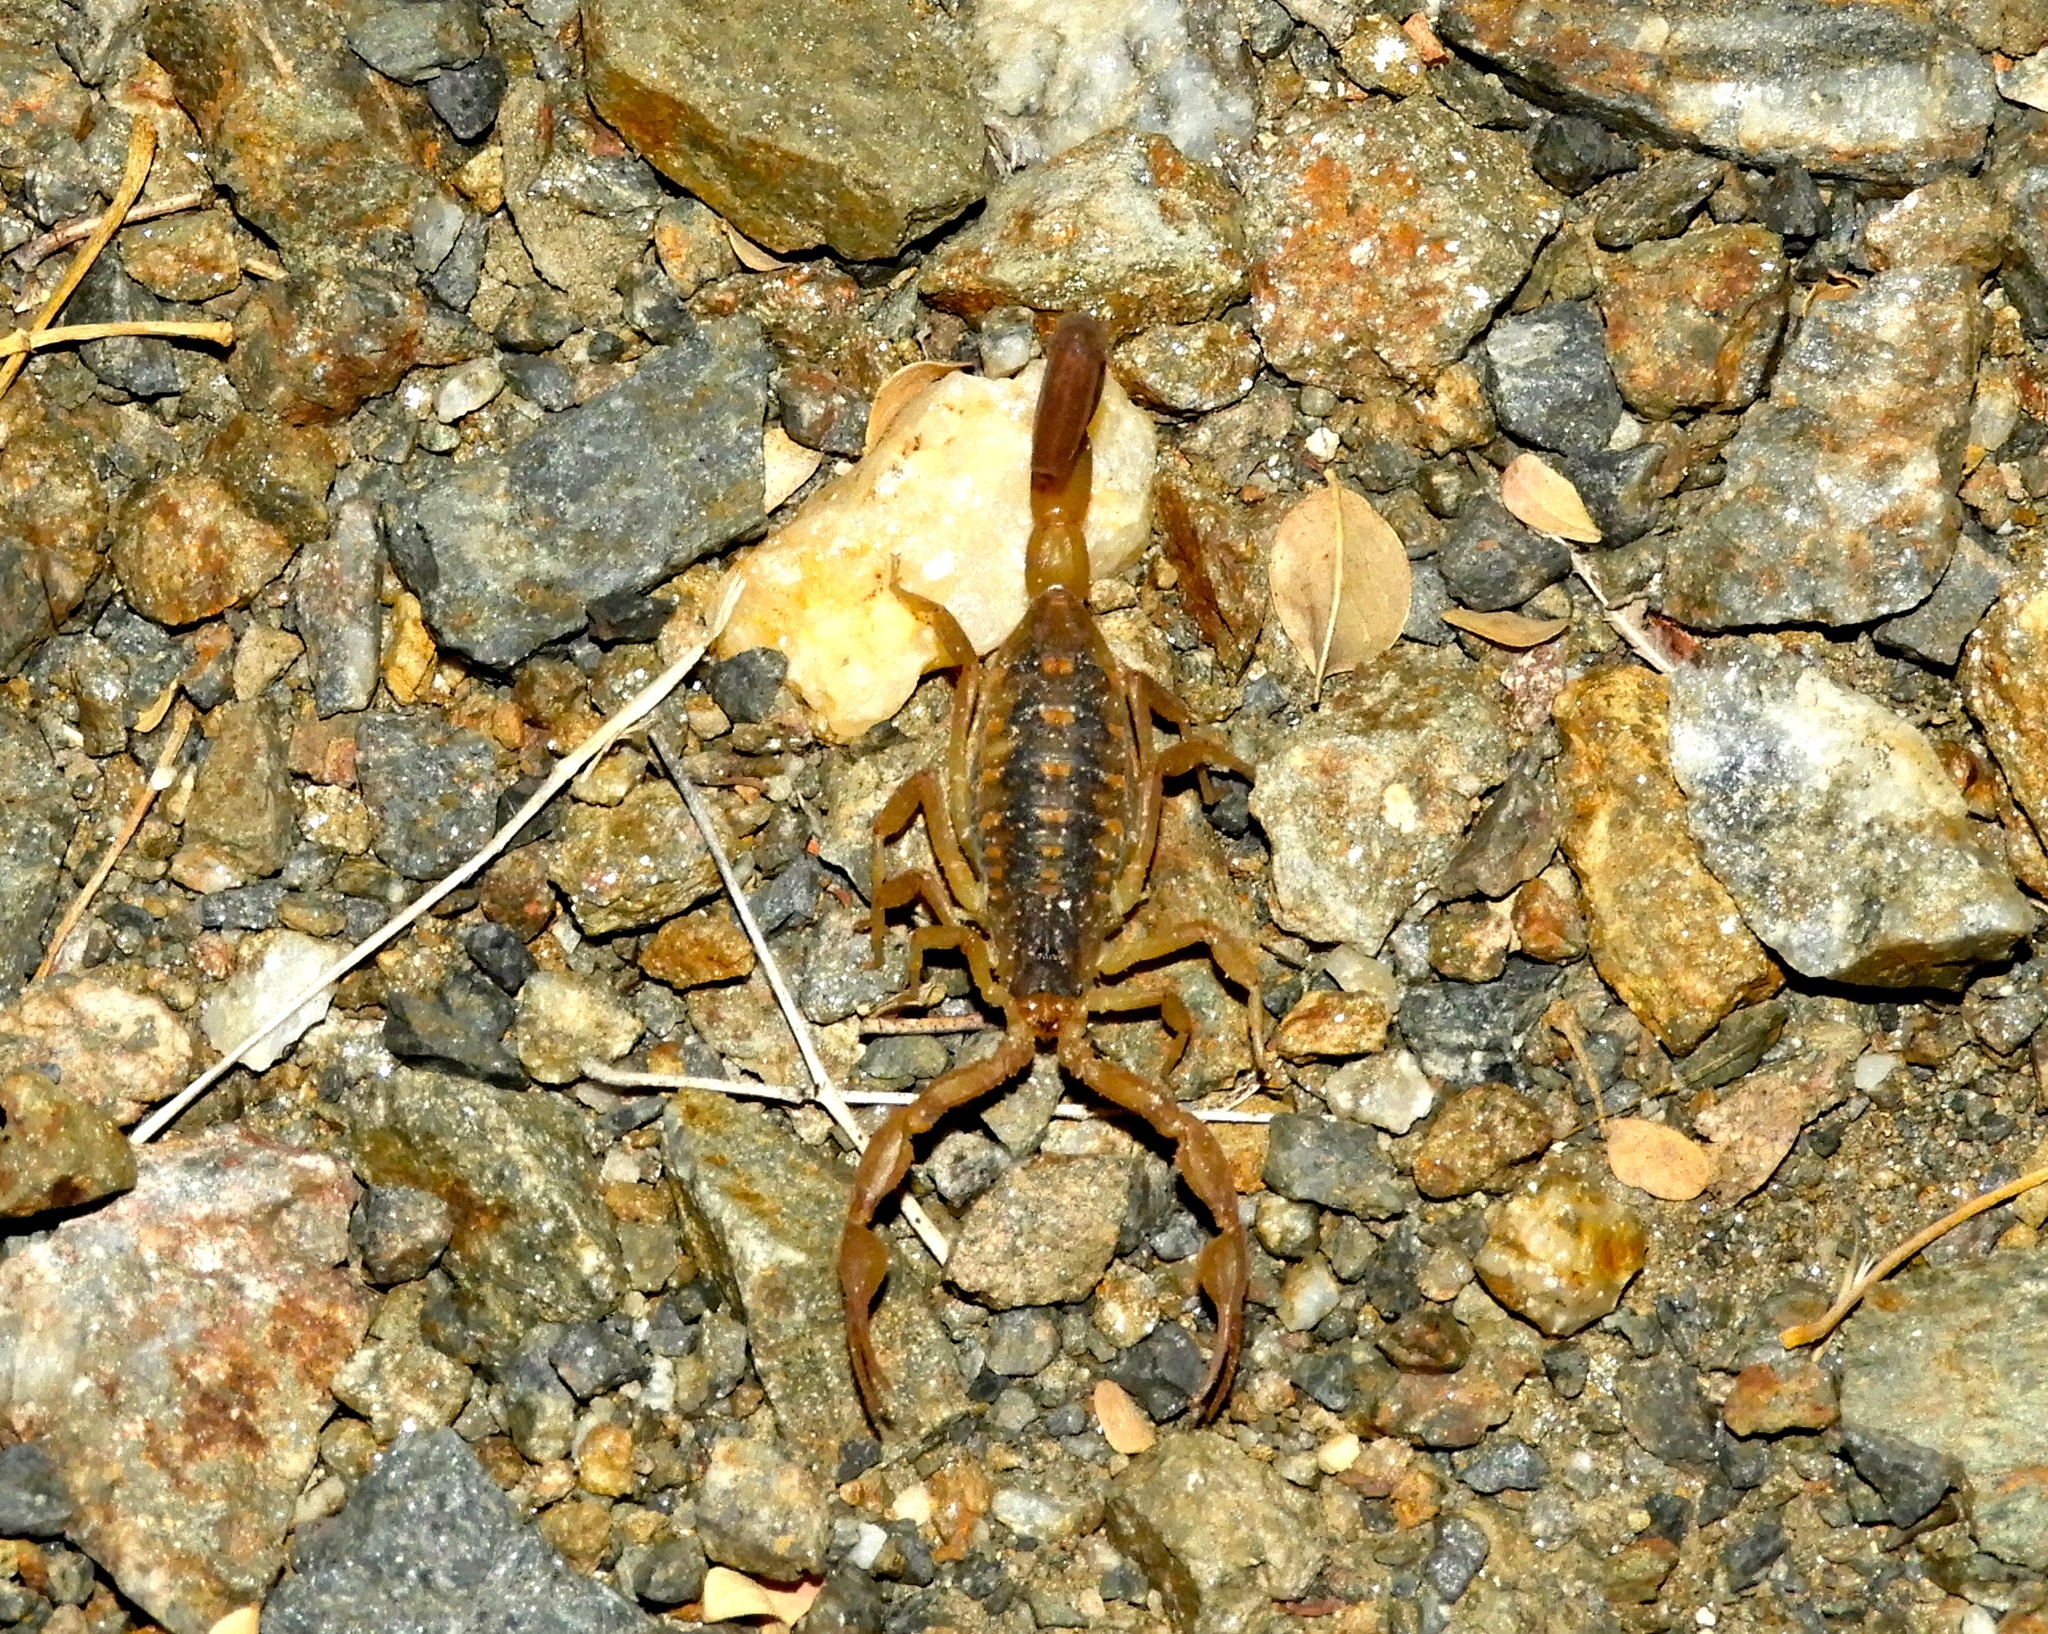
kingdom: Animalia
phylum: Arthropoda
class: Arachnida
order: Scorpiones
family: Buthidae
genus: Centruroides
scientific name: Centruroides baldazoi
